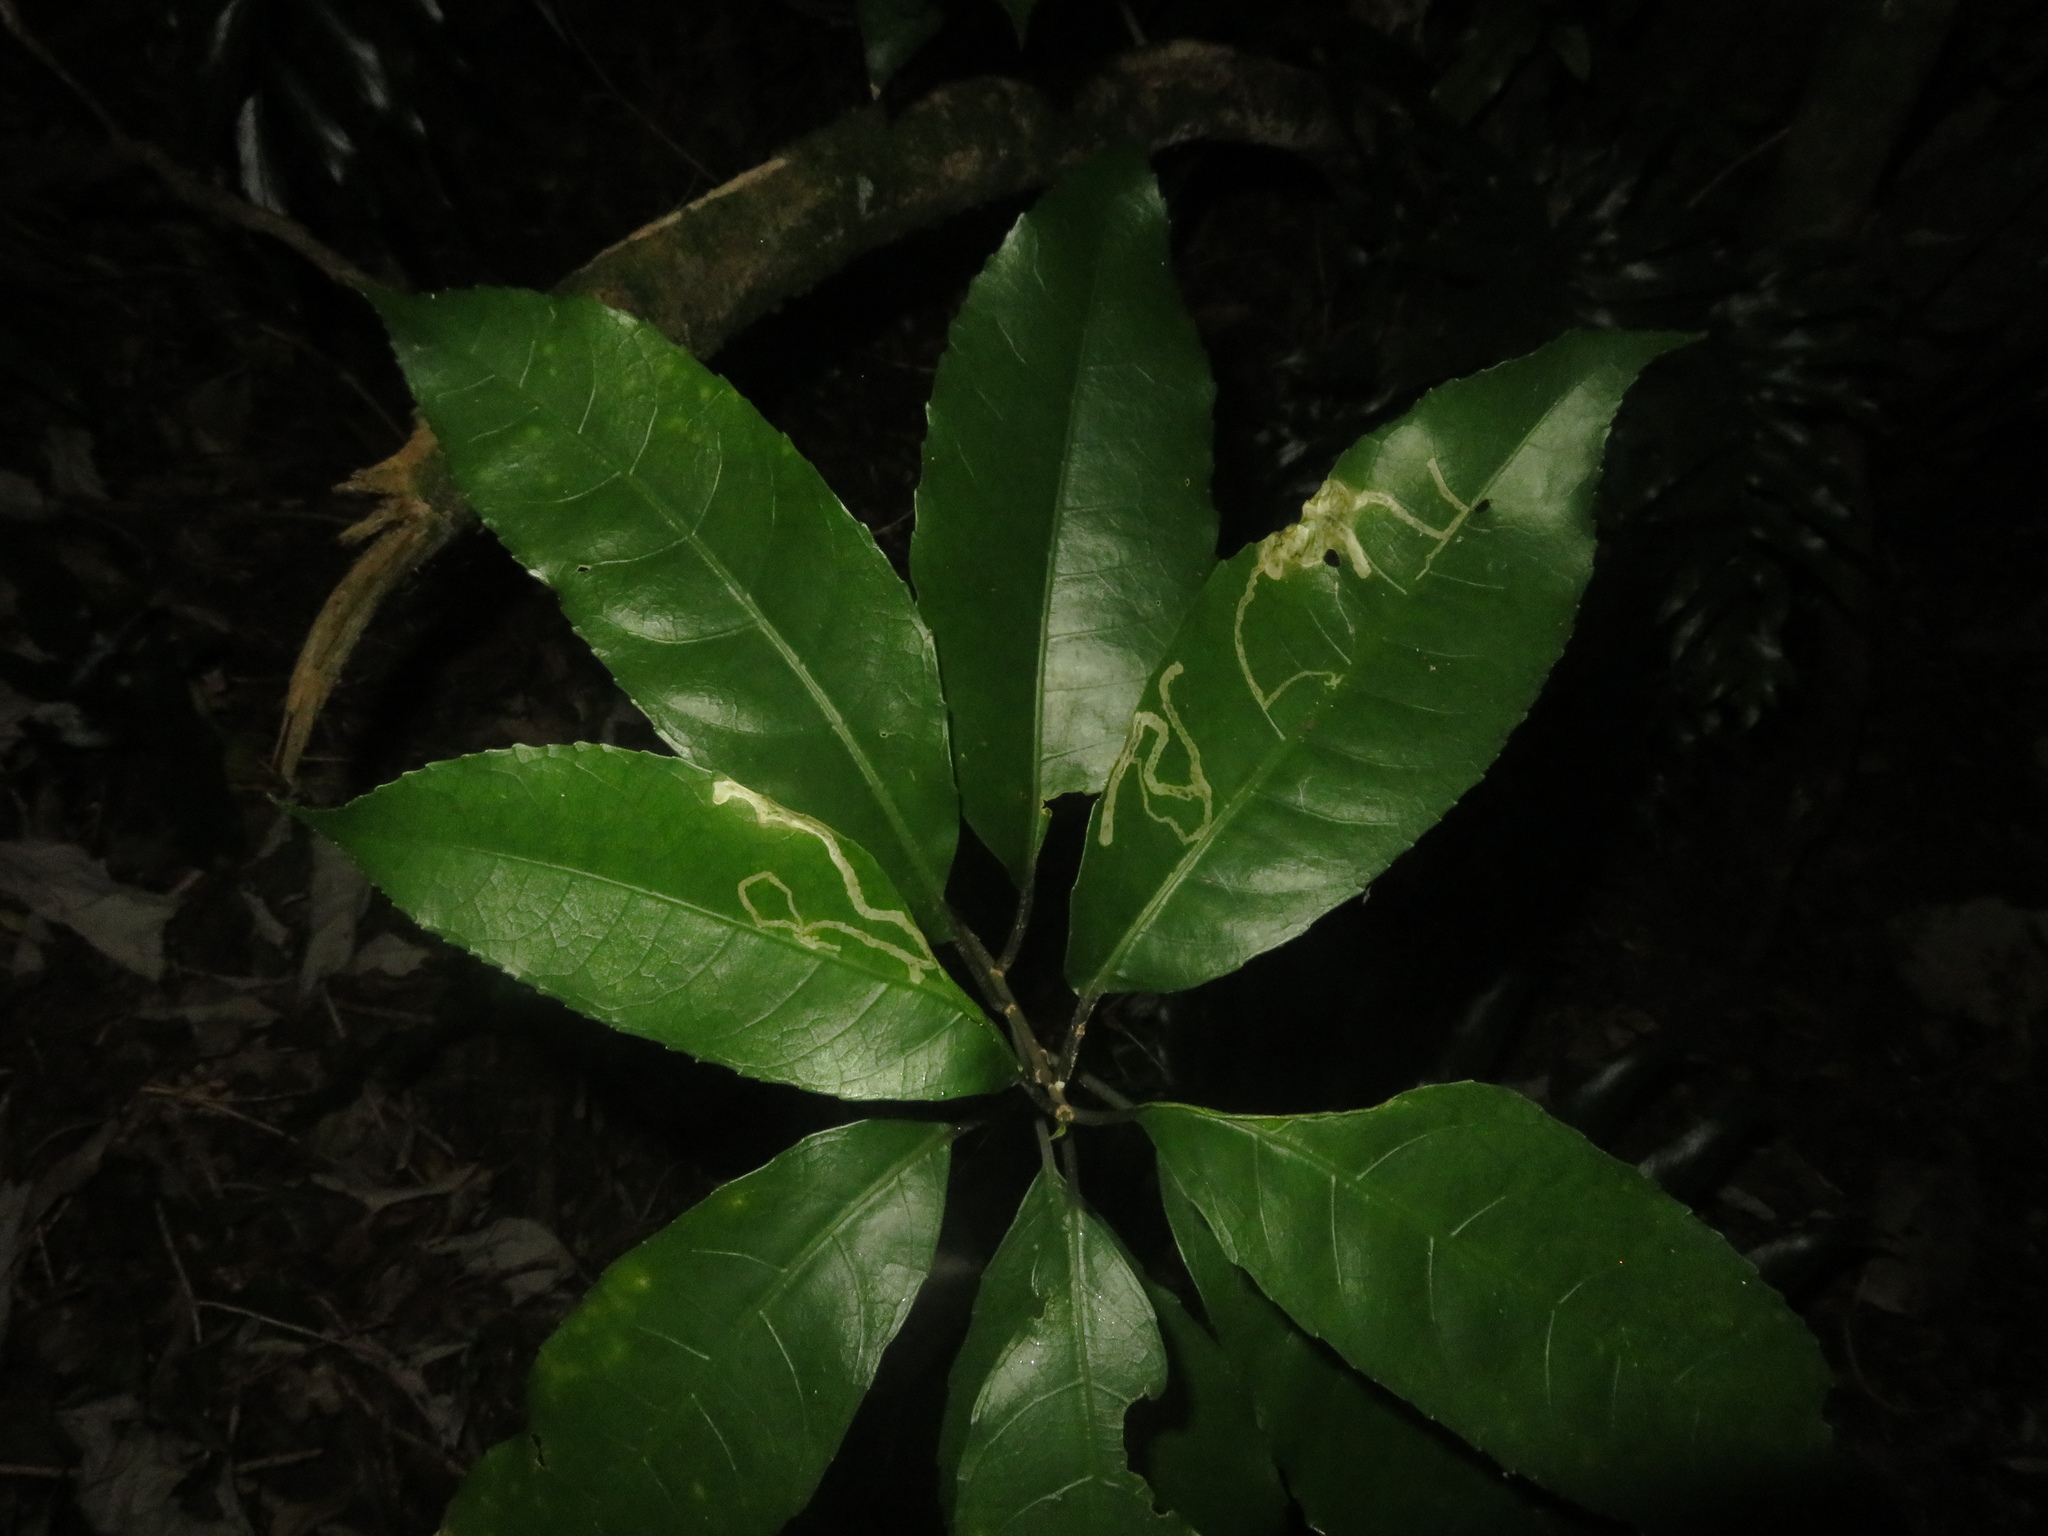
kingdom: Animalia
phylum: Arthropoda
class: Insecta
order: Diptera
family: Agromyzidae
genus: Liriomyza
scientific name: Liriomyza flavolateralis
